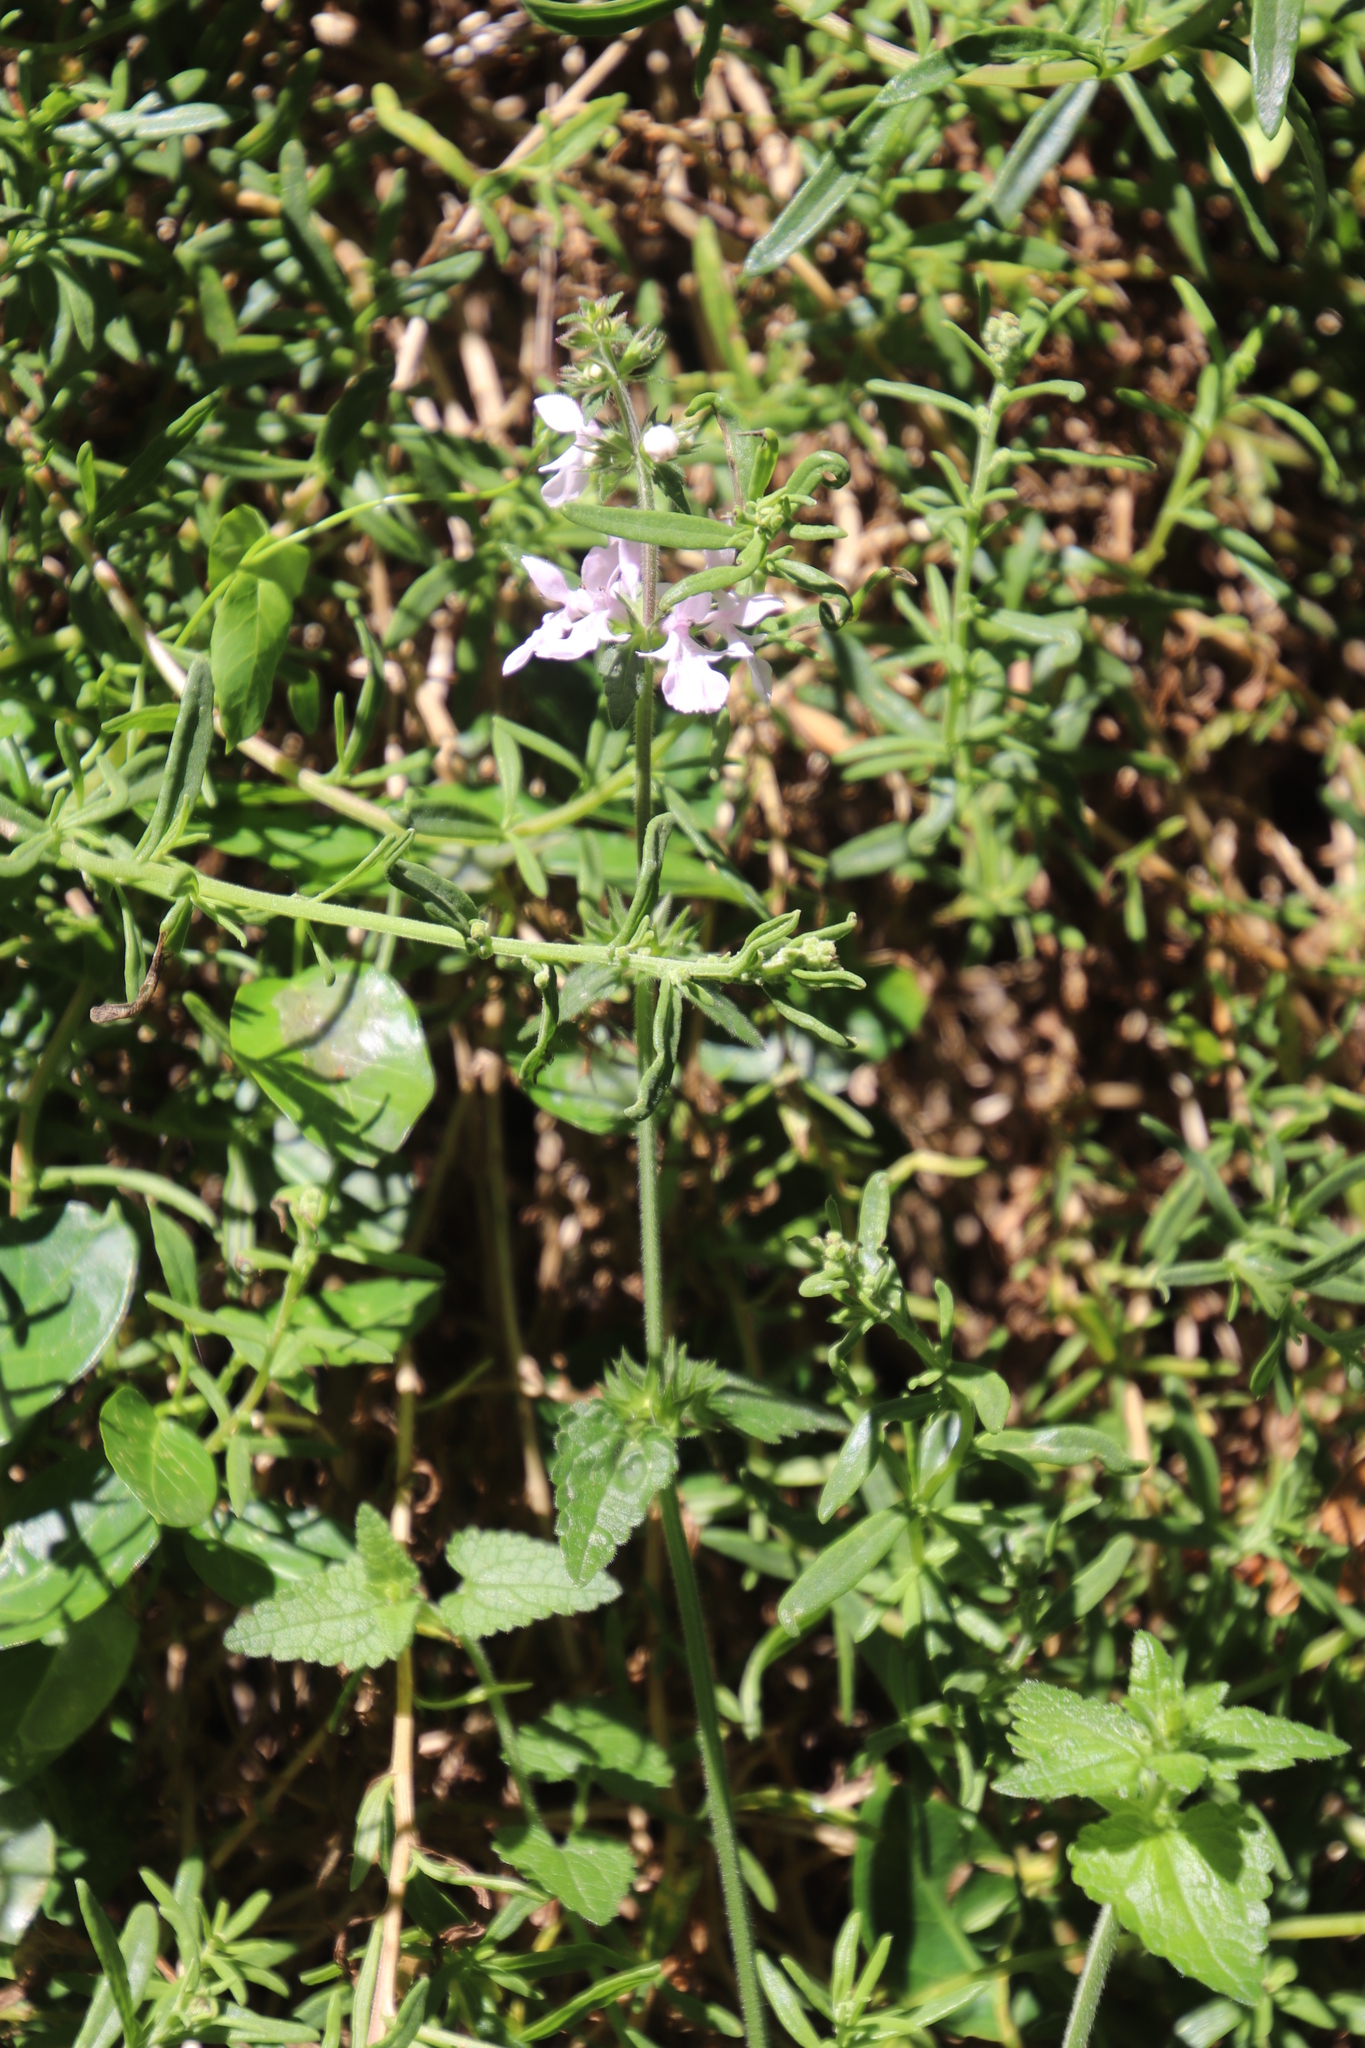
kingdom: Plantae
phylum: Tracheophyta
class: Magnoliopsida
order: Lamiales
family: Lamiaceae
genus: Stachys
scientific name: Stachys aethiopica
